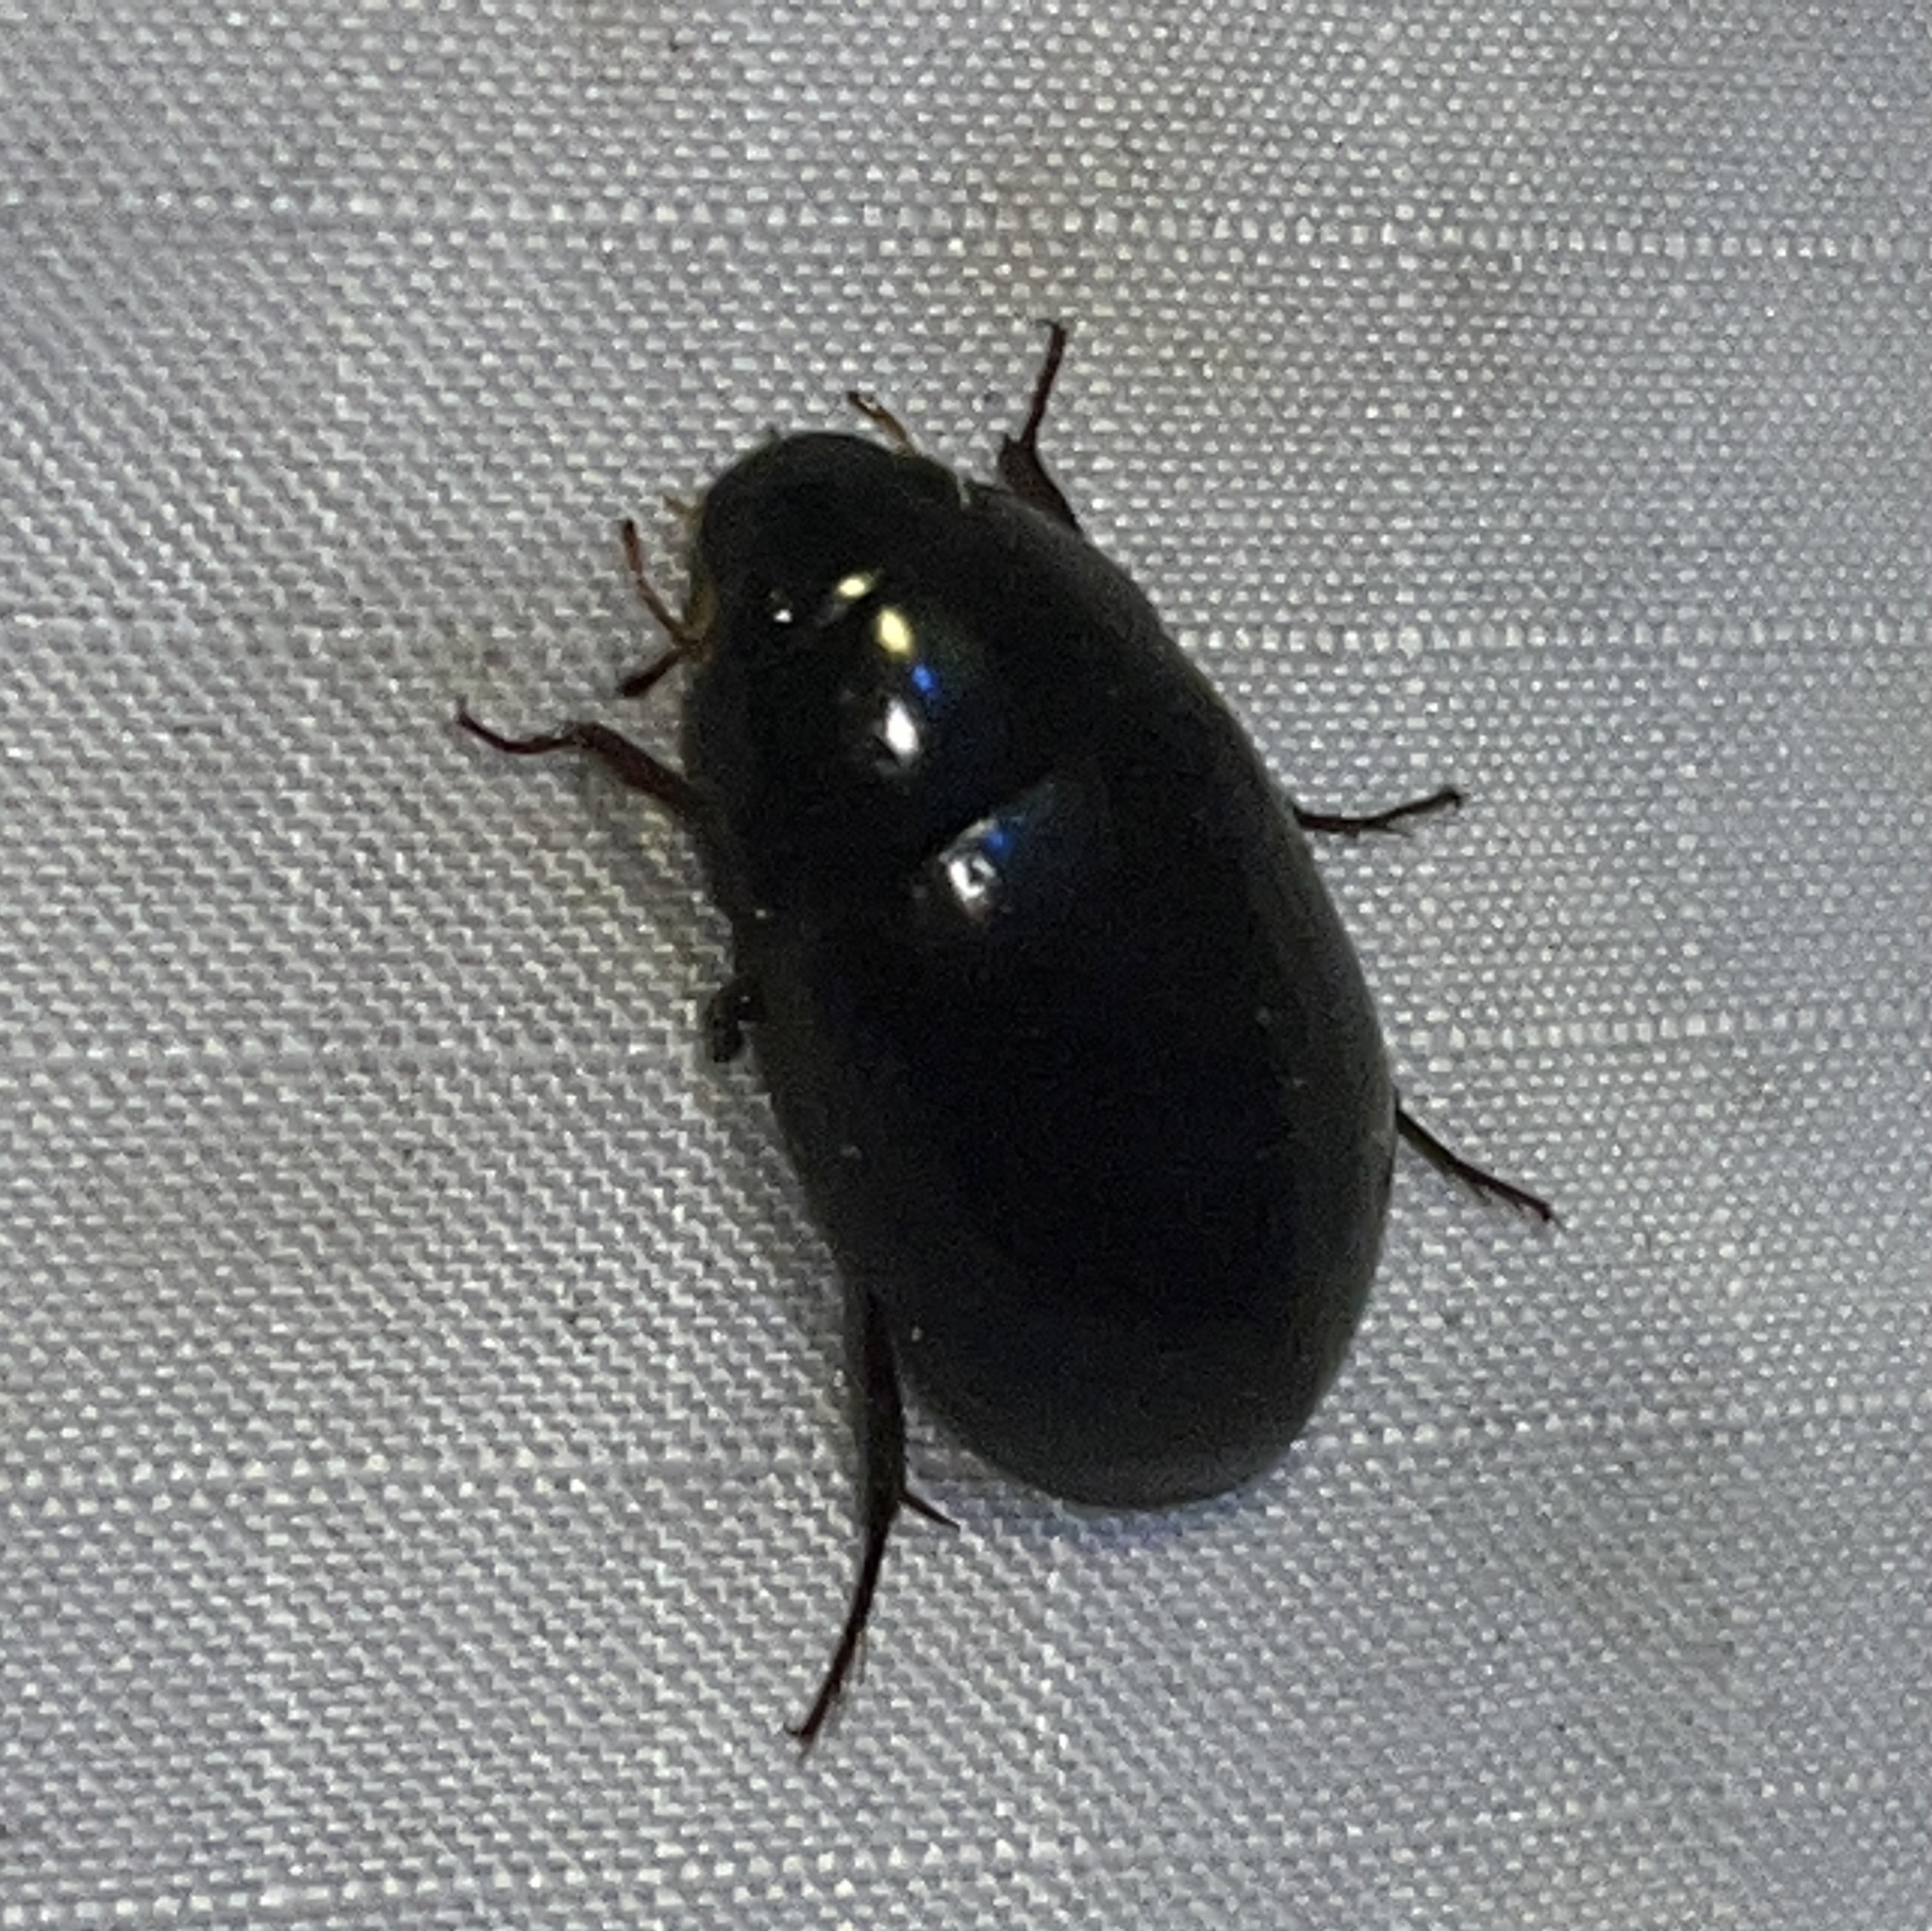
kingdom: Animalia
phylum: Arthropoda
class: Insecta
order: Coleoptera
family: Hydrophilidae
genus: Hydrochara
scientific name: Hydrochara
